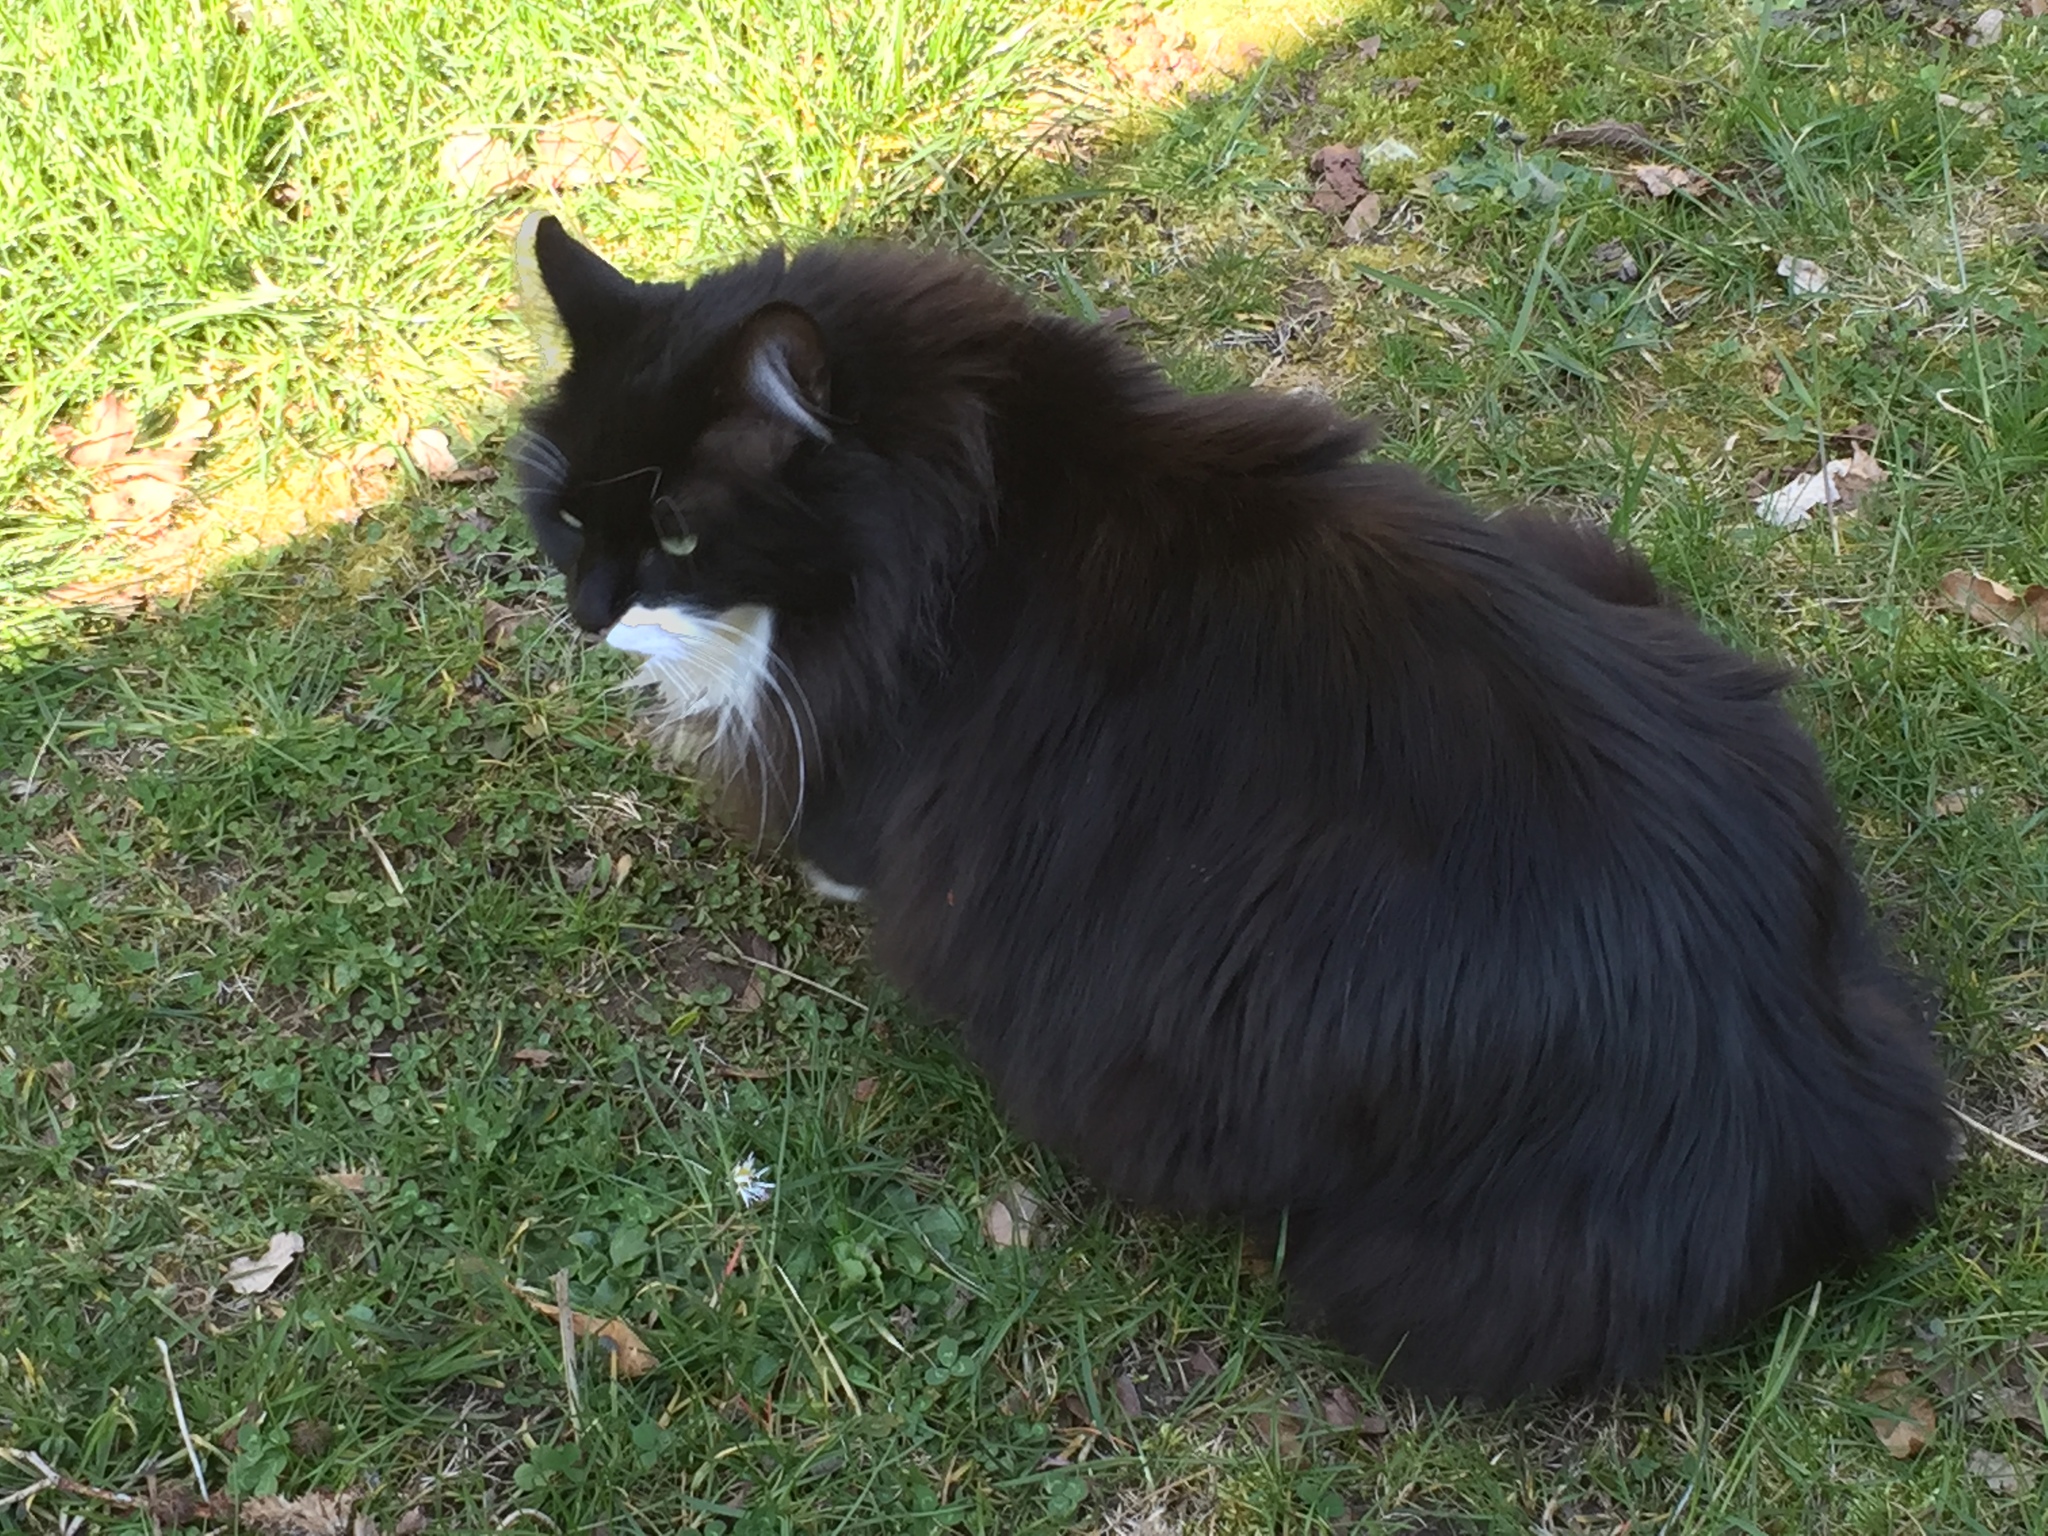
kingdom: Animalia
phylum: Chordata
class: Mammalia
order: Carnivora
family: Felidae
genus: Felis
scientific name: Felis catus
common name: Domestic cat
